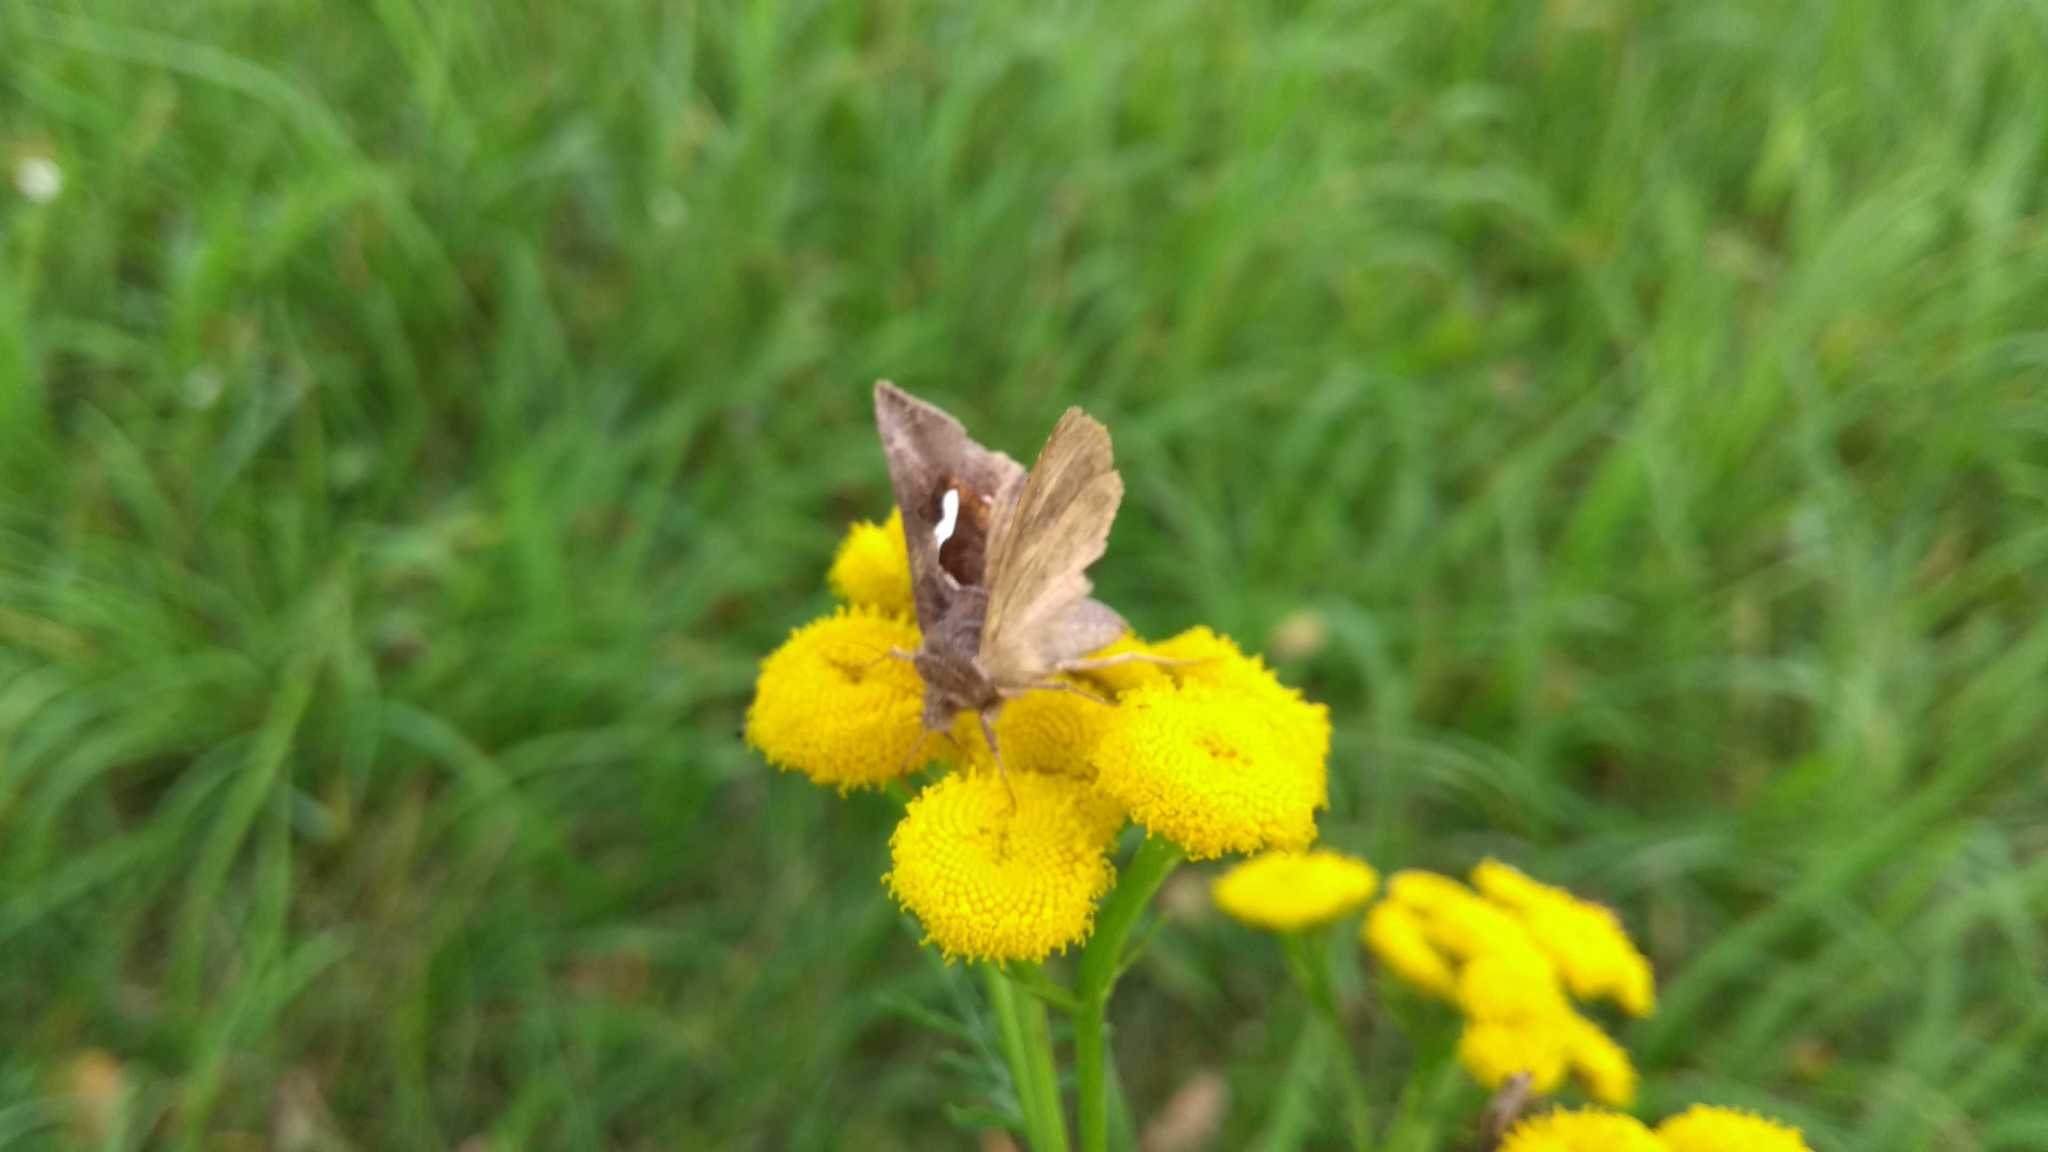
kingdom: Animalia
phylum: Arthropoda
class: Insecta
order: Lepidoptera
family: Noctuidae
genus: Macdunnoughia
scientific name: Macdunnoughia confusa
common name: Dewick's plusia
